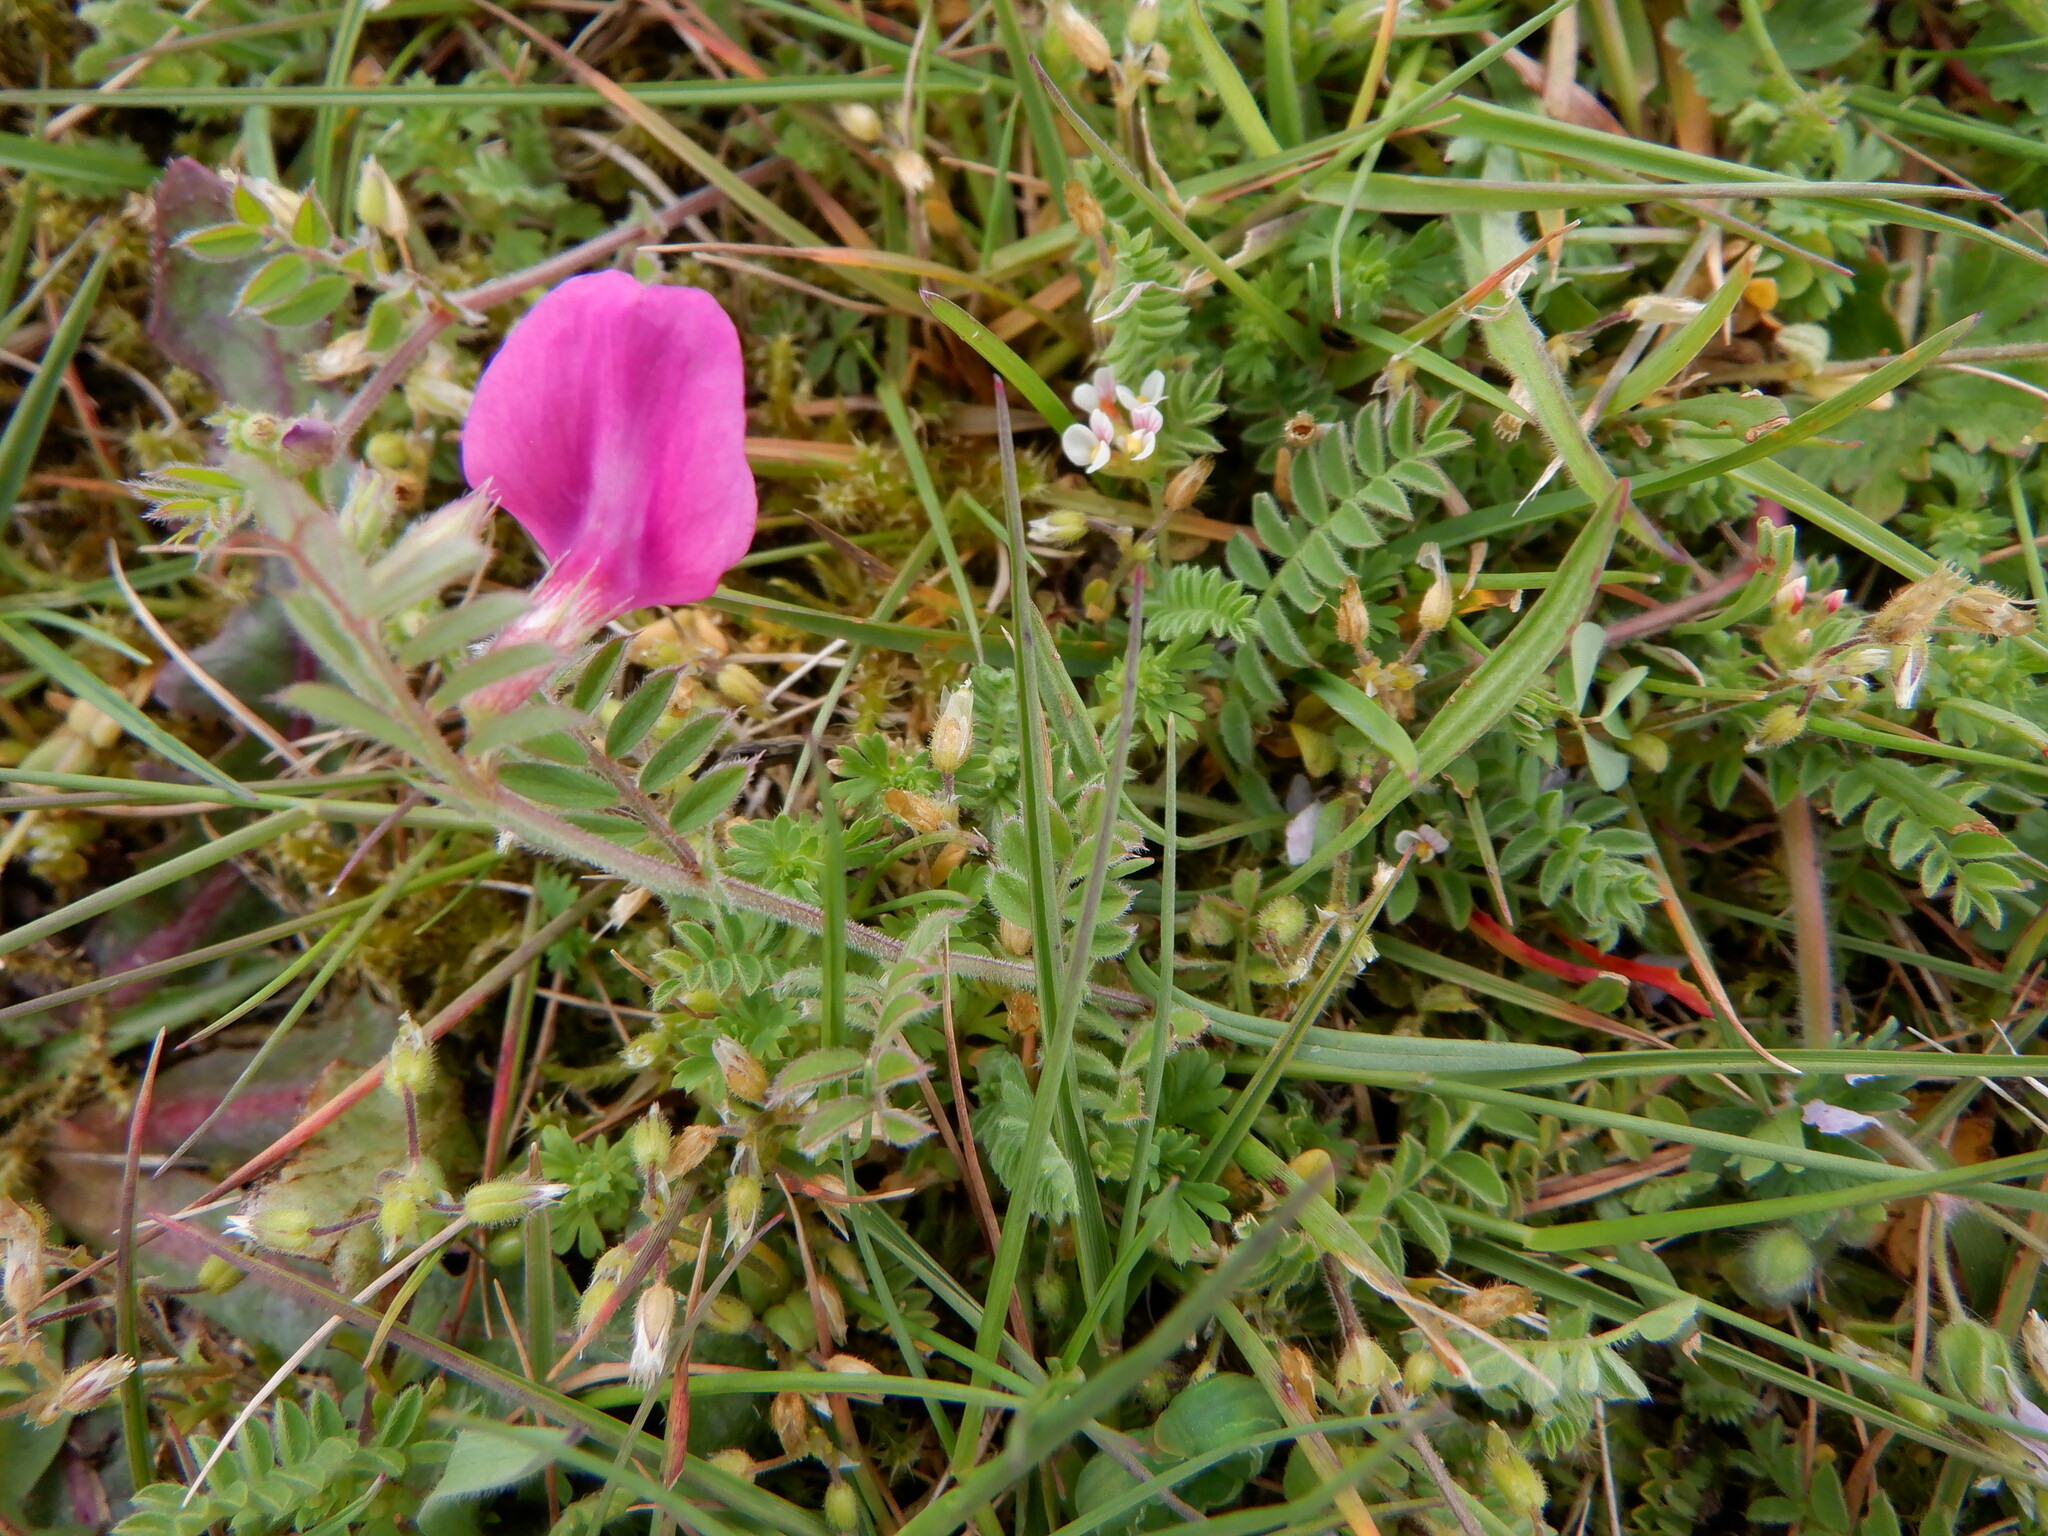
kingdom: Plantae
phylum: Tracheophyta
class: Magnoliopsida
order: Fabales
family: Fabaceae
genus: Vicia
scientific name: Vicia sativa
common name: Garden vetch
